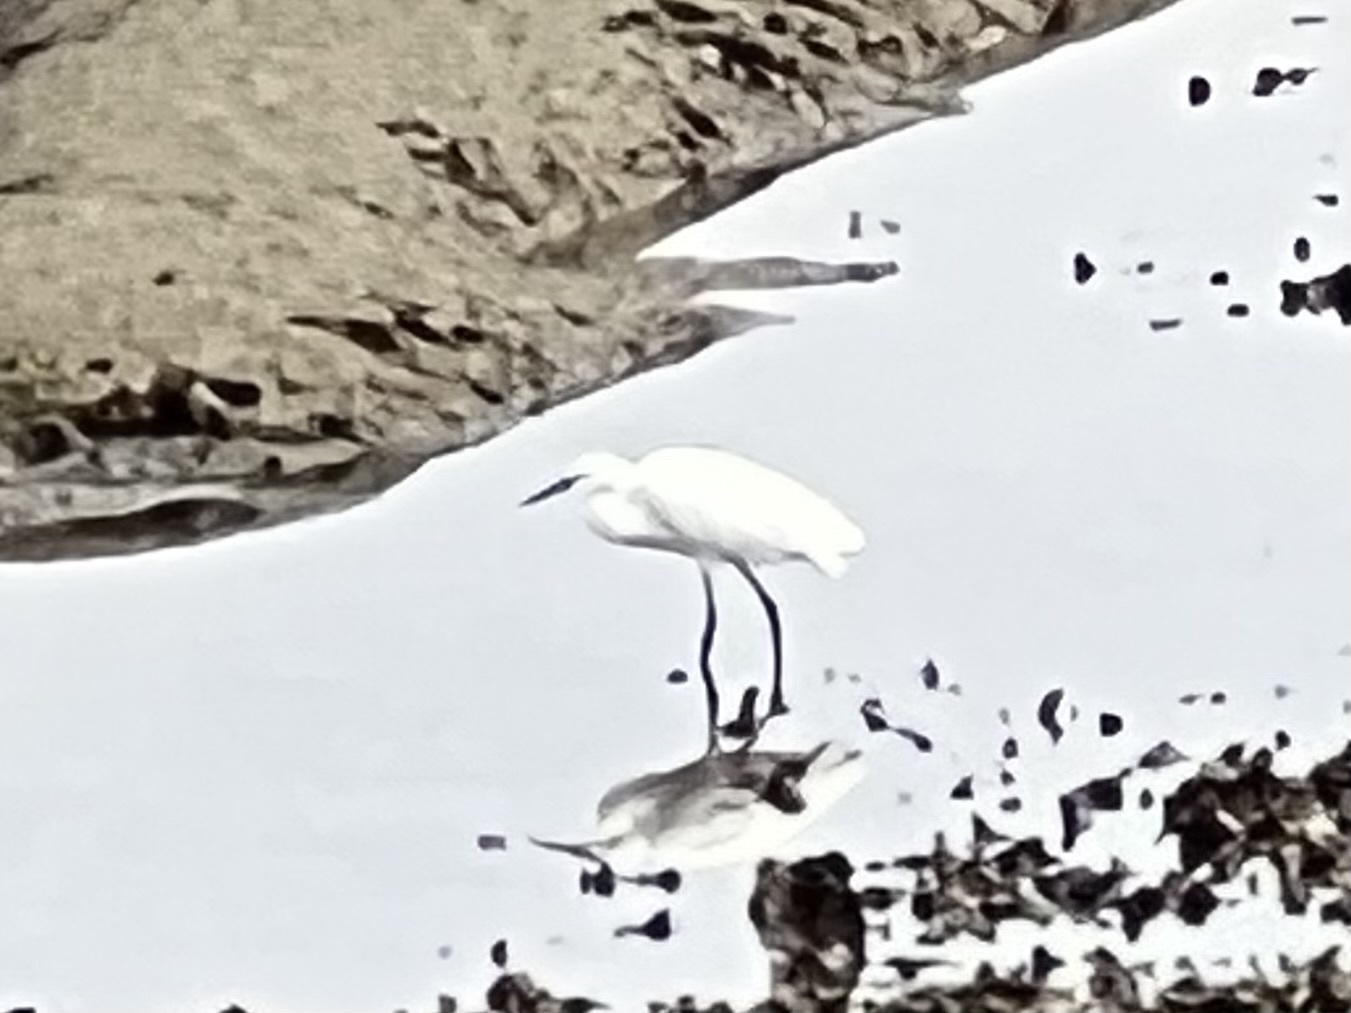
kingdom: Animalia
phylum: Chordata
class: Aves
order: Pelecaniformes
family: Ardeidae
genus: Egretta
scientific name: Egretta garzetta
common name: Little egret
